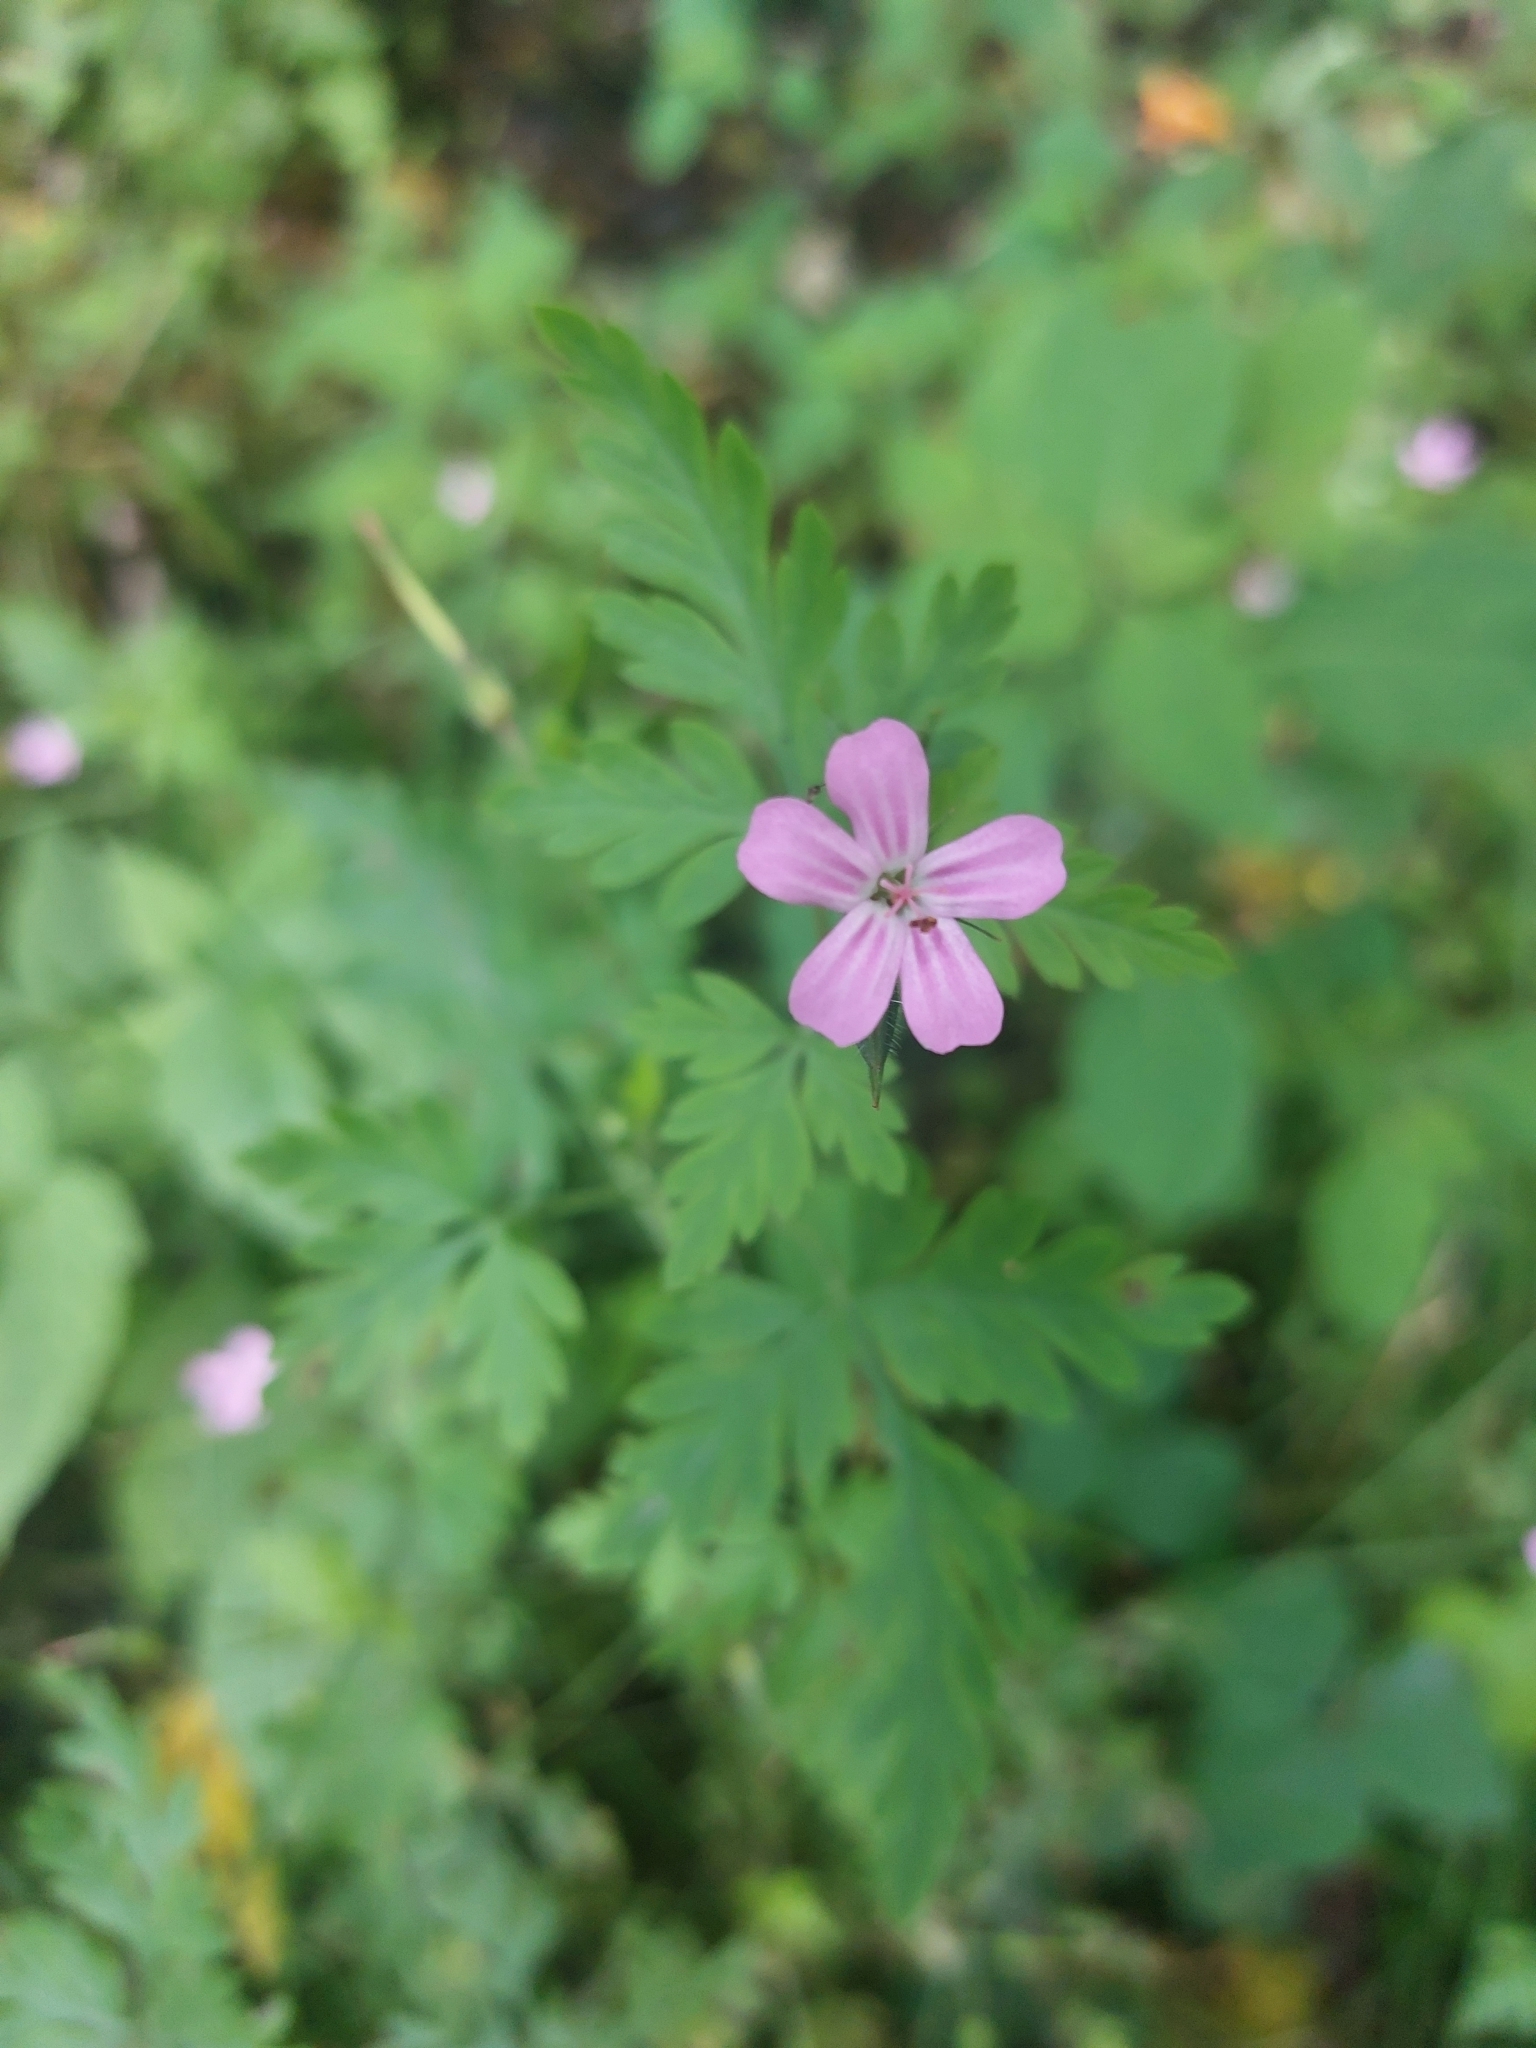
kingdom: Plantae
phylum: Tracheophyta
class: Magnoliopsida
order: Geraniales
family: Geraniaceae
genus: Geranium
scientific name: Geranium robertianum
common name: Herb-robert
